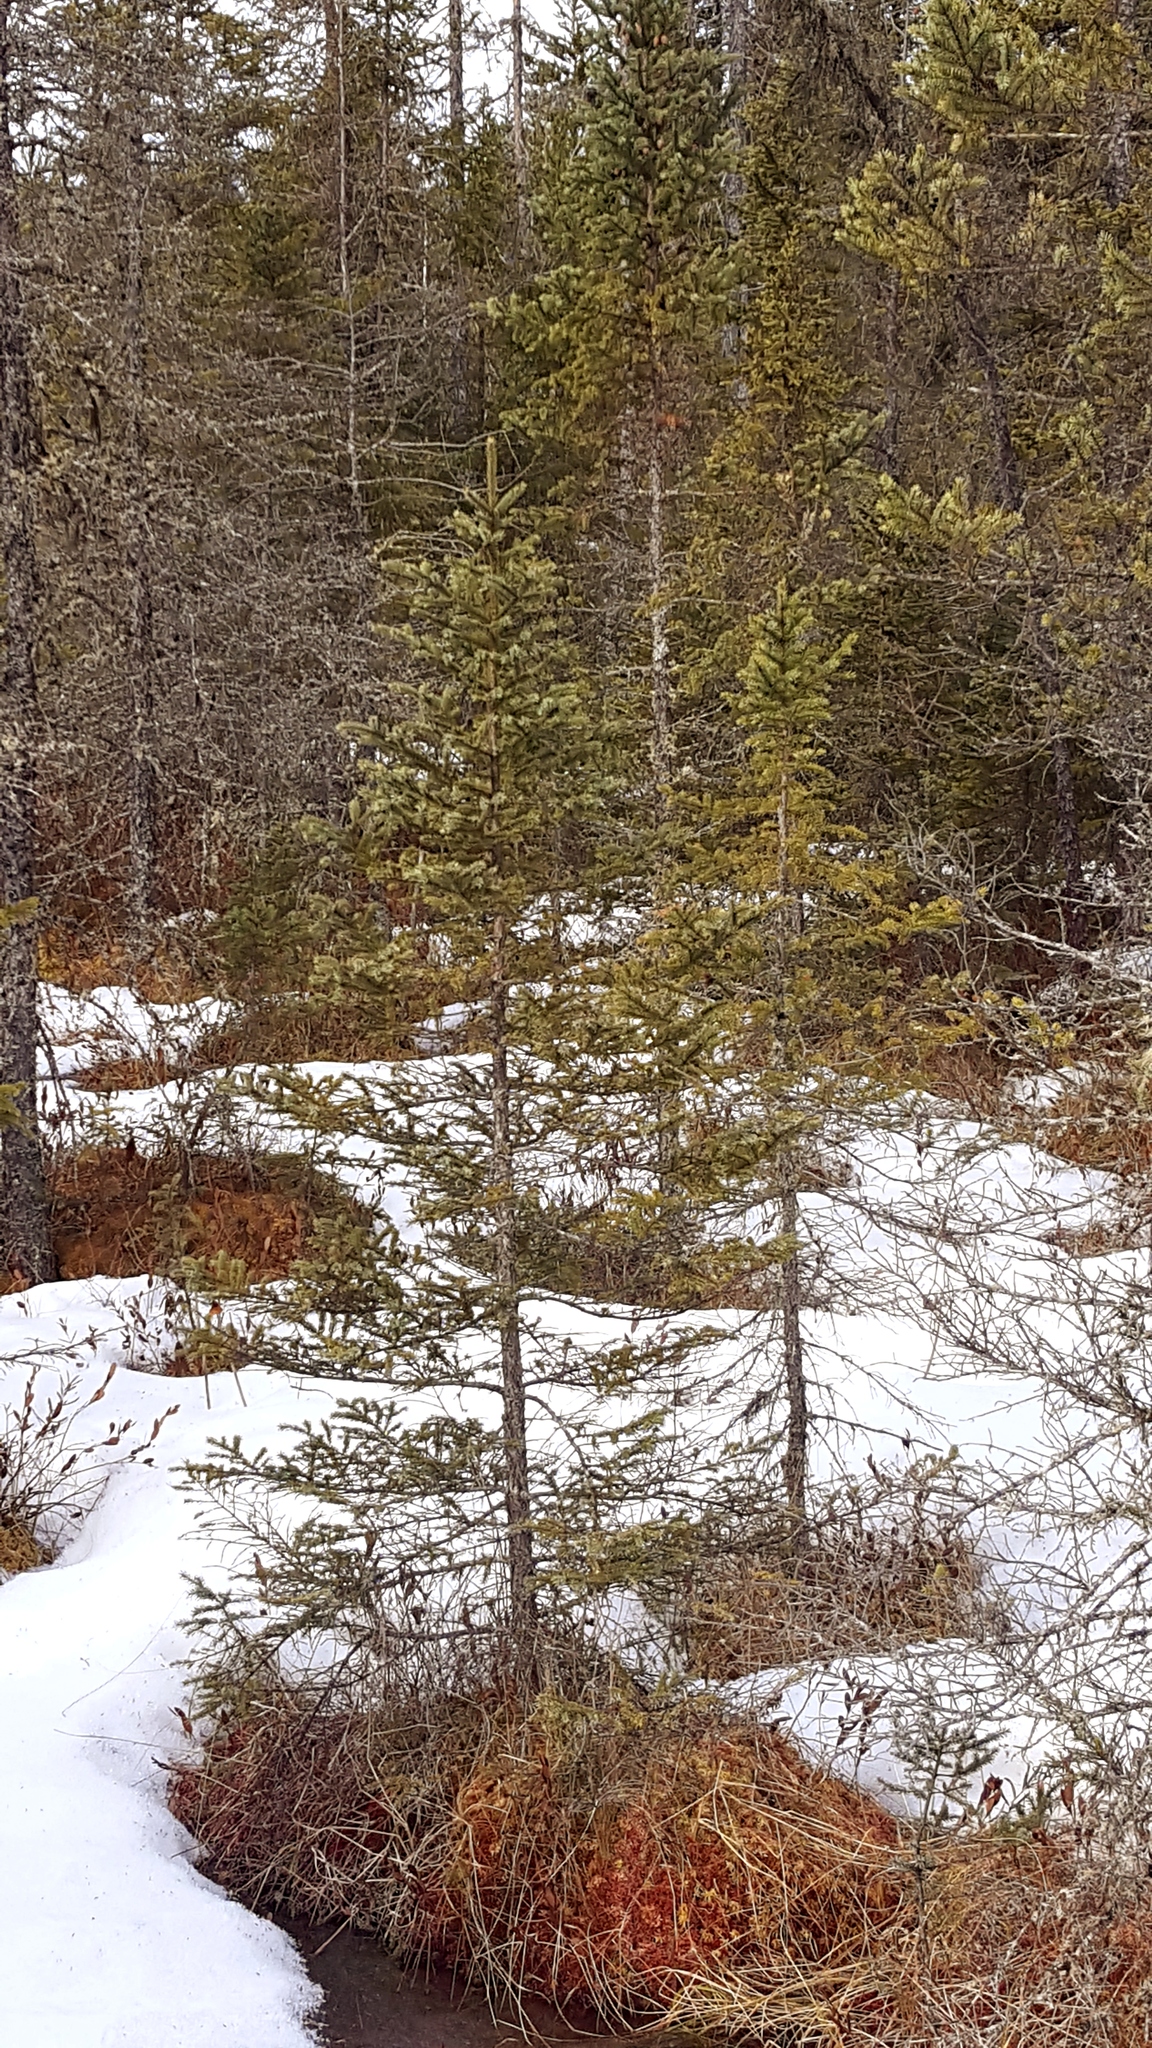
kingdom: Plantae
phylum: Tracheophyta
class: Pinopsida
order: Pinales
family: Pinaceae
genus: Picea
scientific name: Picea mariana
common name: Black spruce
